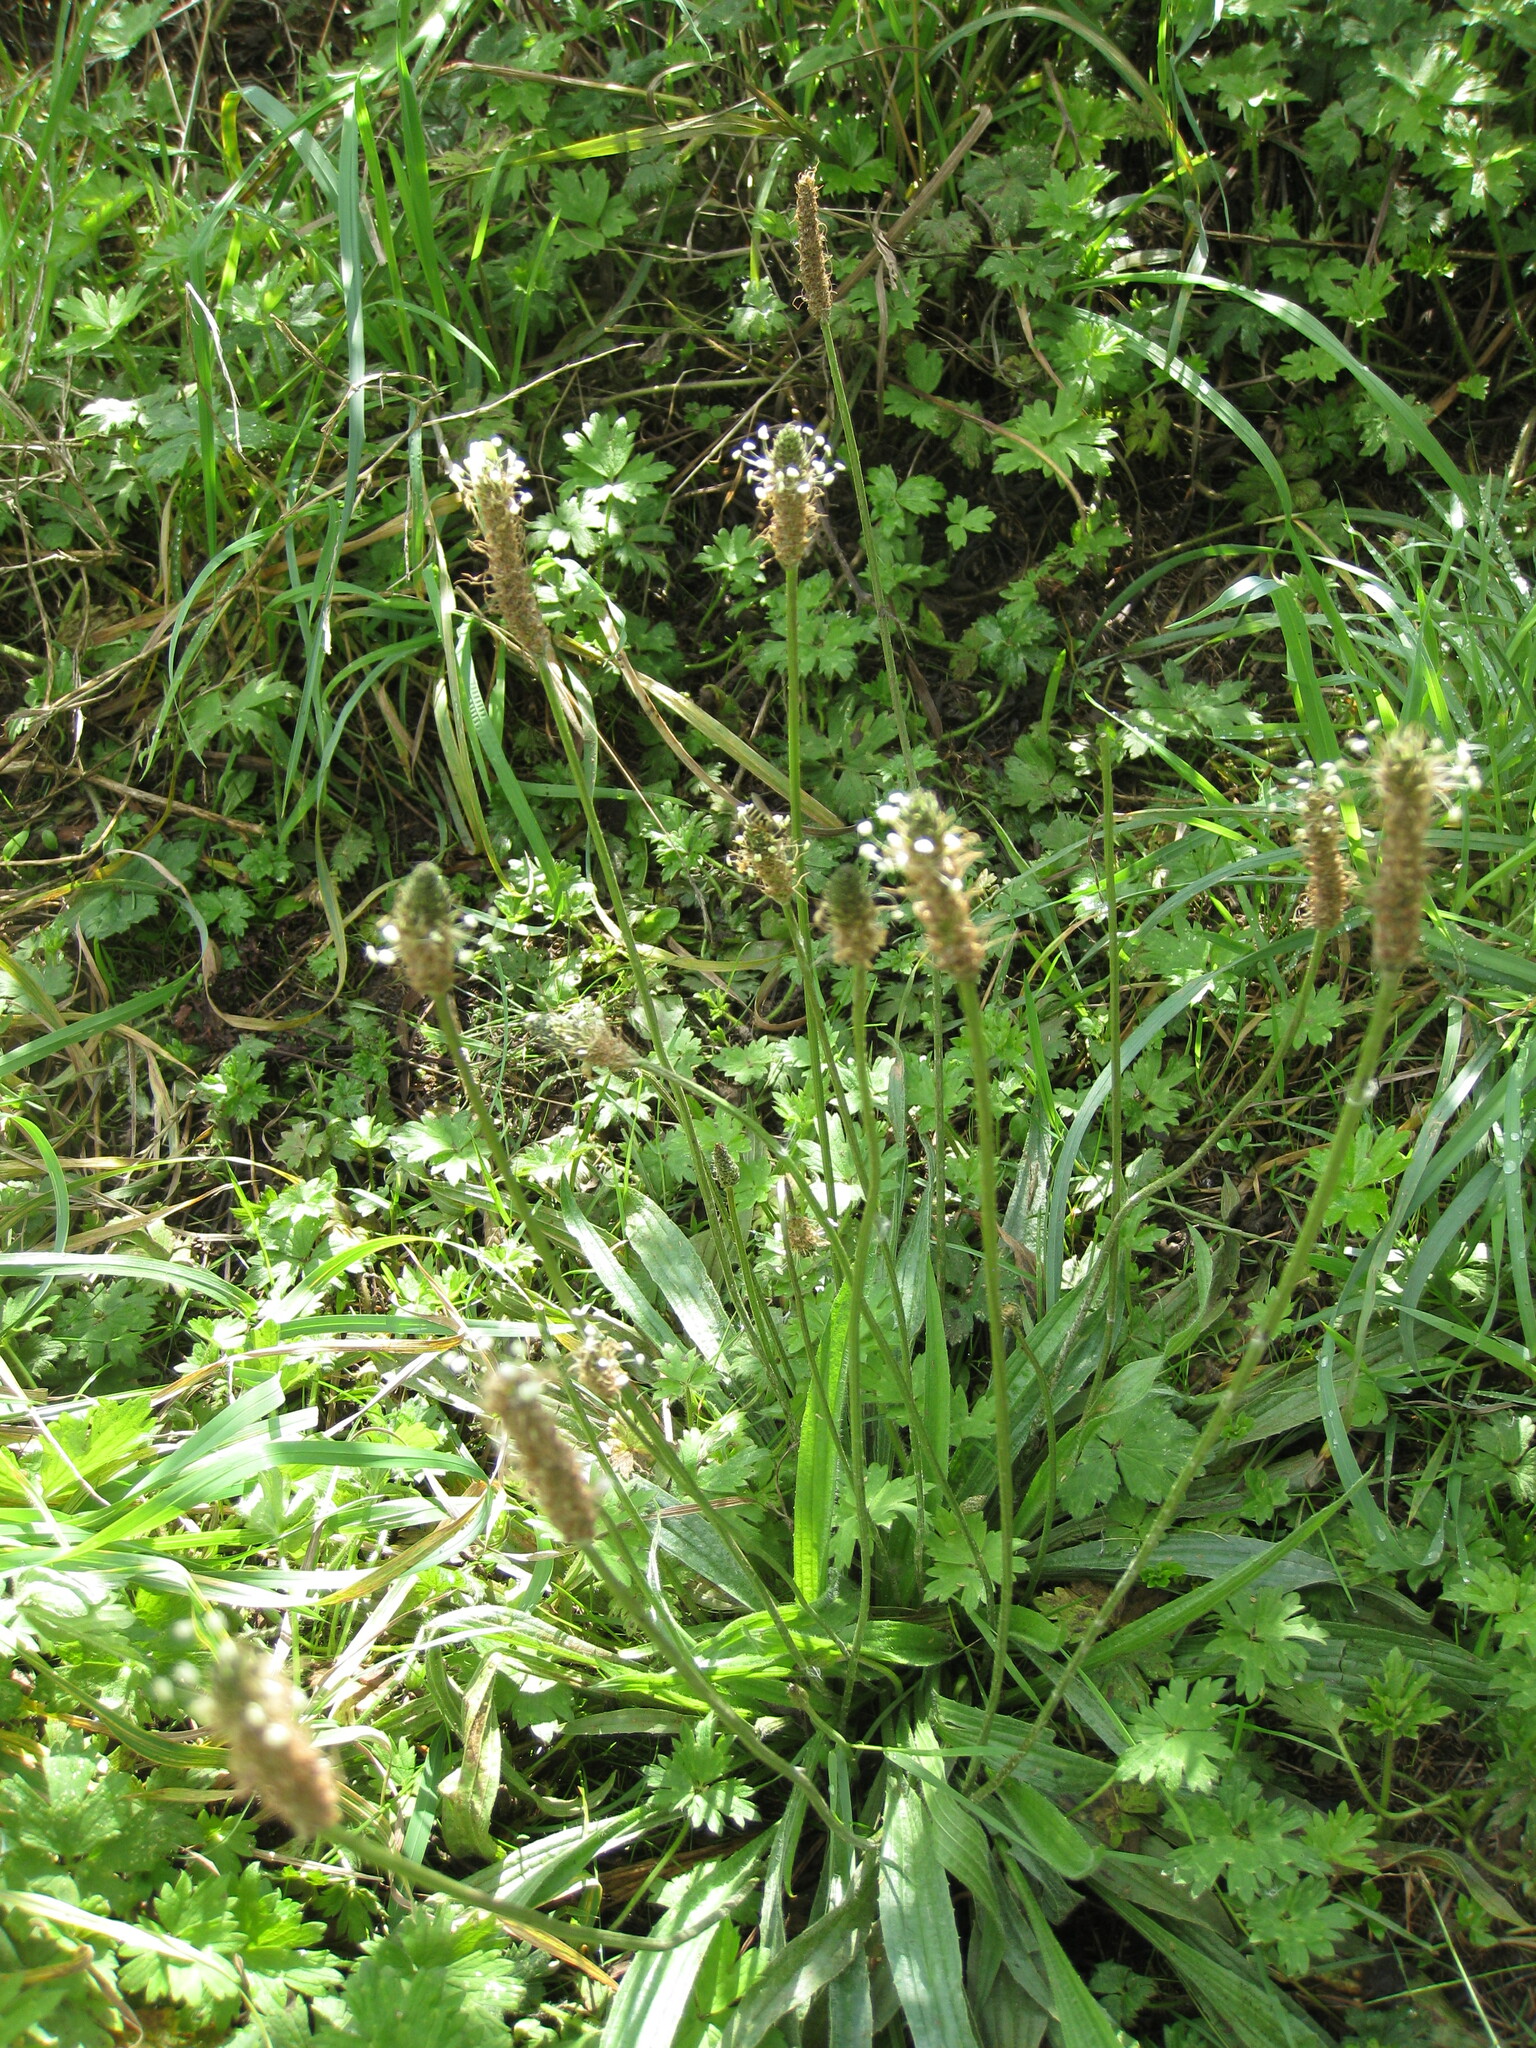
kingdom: Plantae
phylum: Tracheophyta
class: Magnoliopsida
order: Lamiales
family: Plantaginaceae
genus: Plantago
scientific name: Plantago lanceolata
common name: Ribwort plantain
